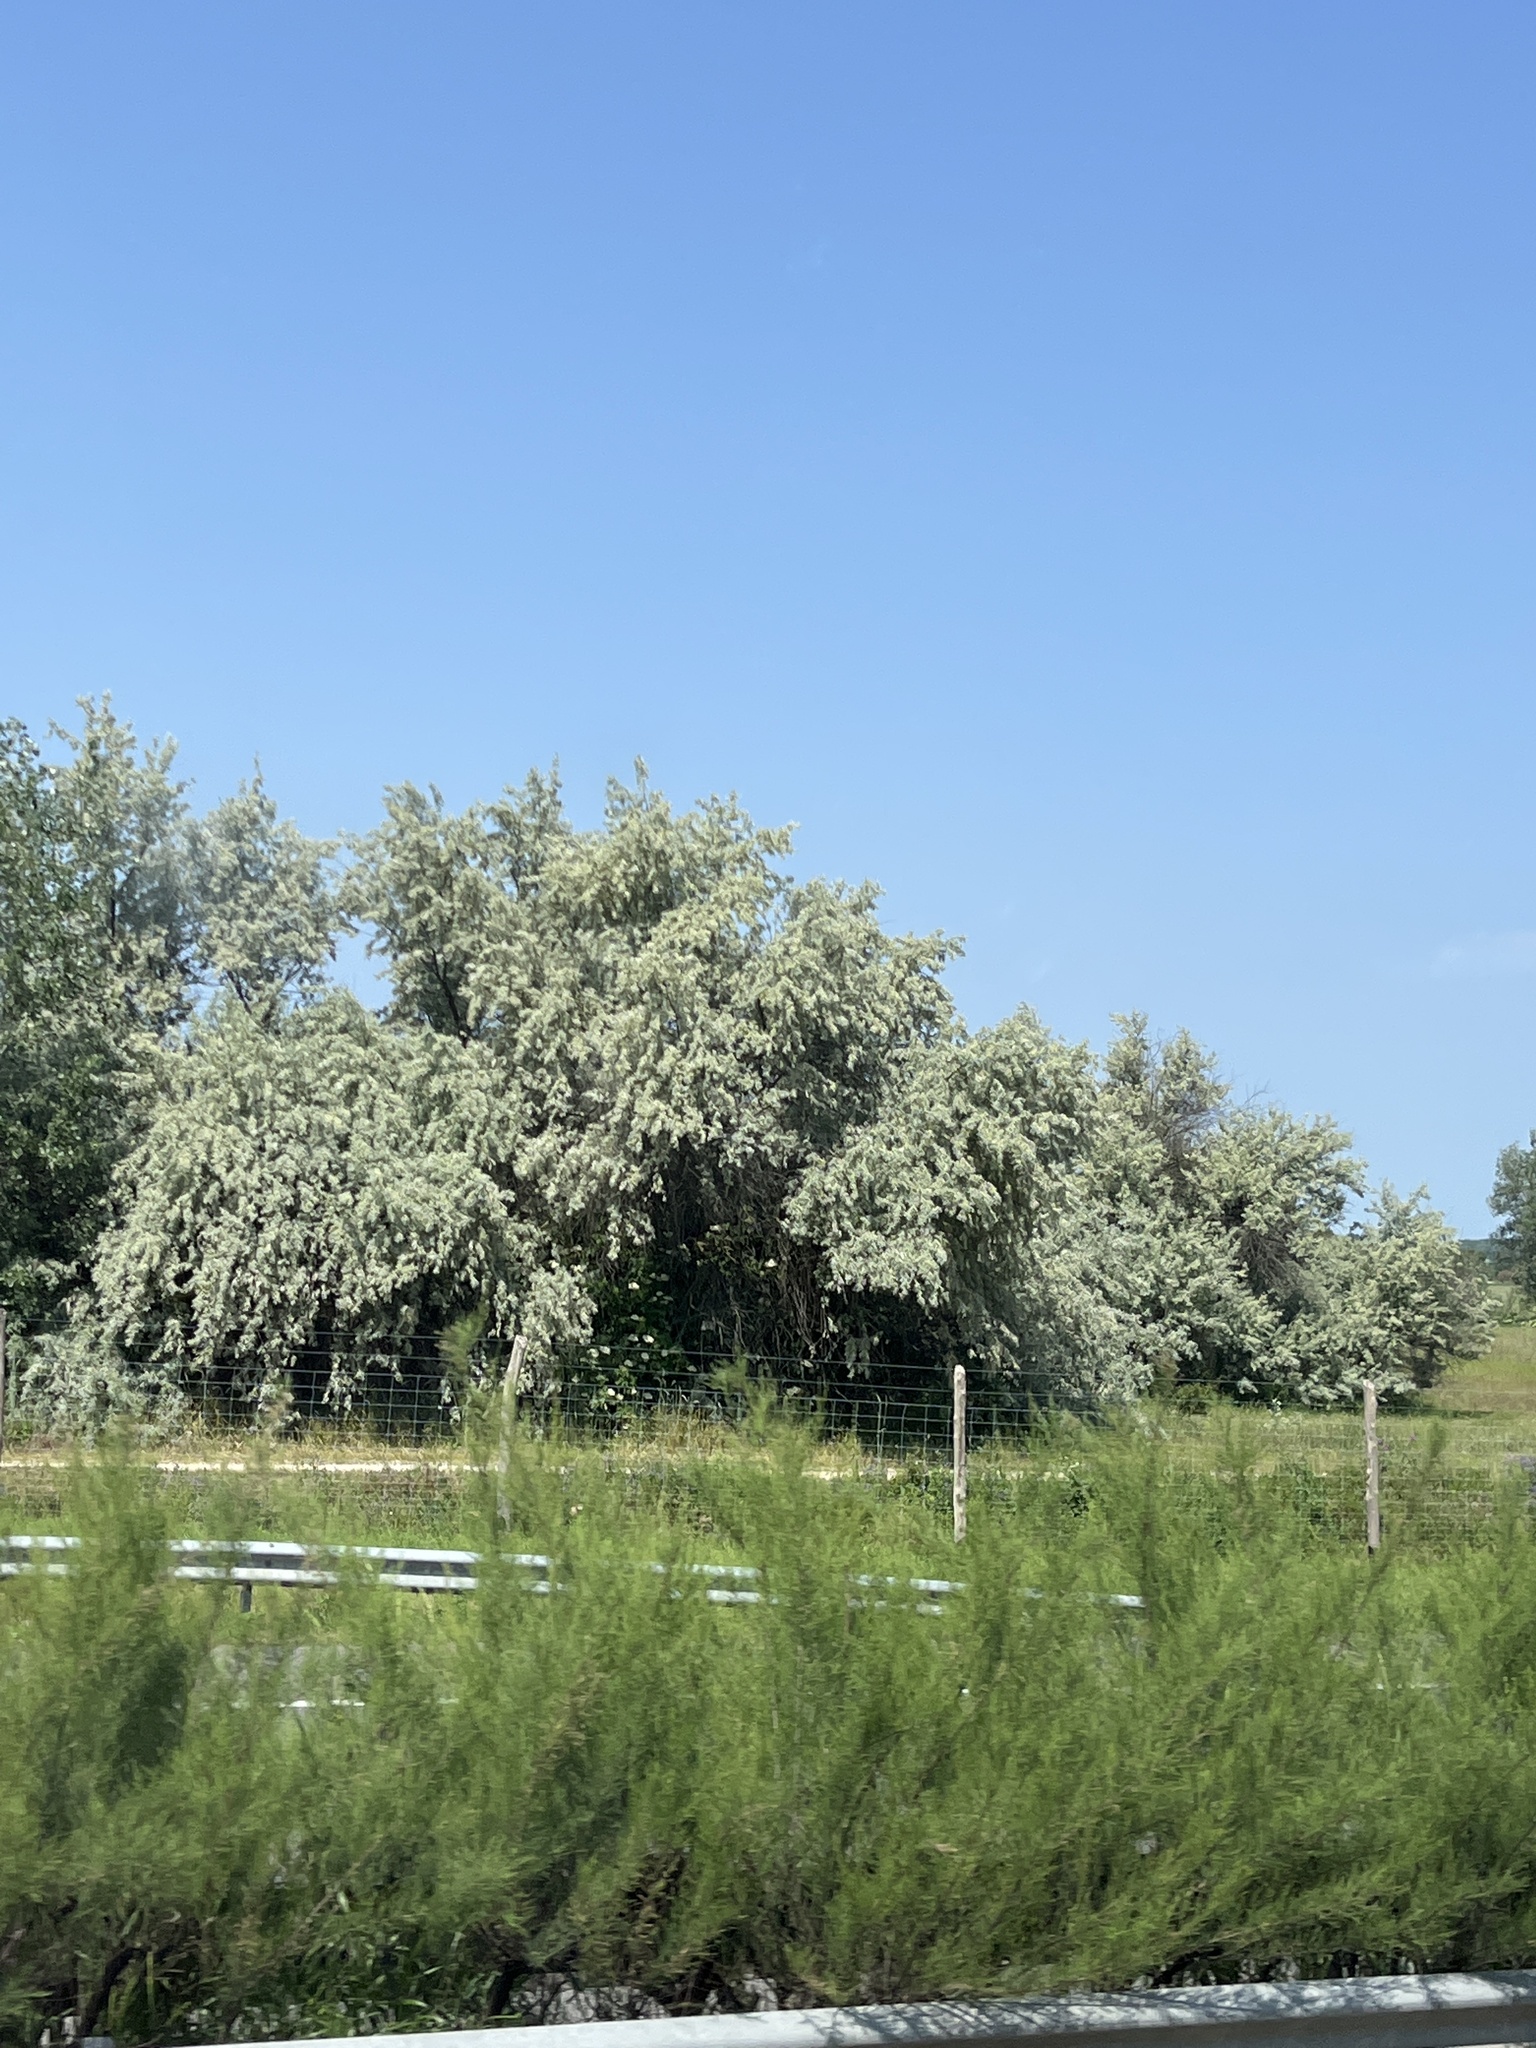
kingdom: Plantae
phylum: Tracheophyta
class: Magnoliopsida
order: Rosales
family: Elaeagnaceae
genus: Elaeagnus
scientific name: Elaeagnus angustifolia
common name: Russian olive
